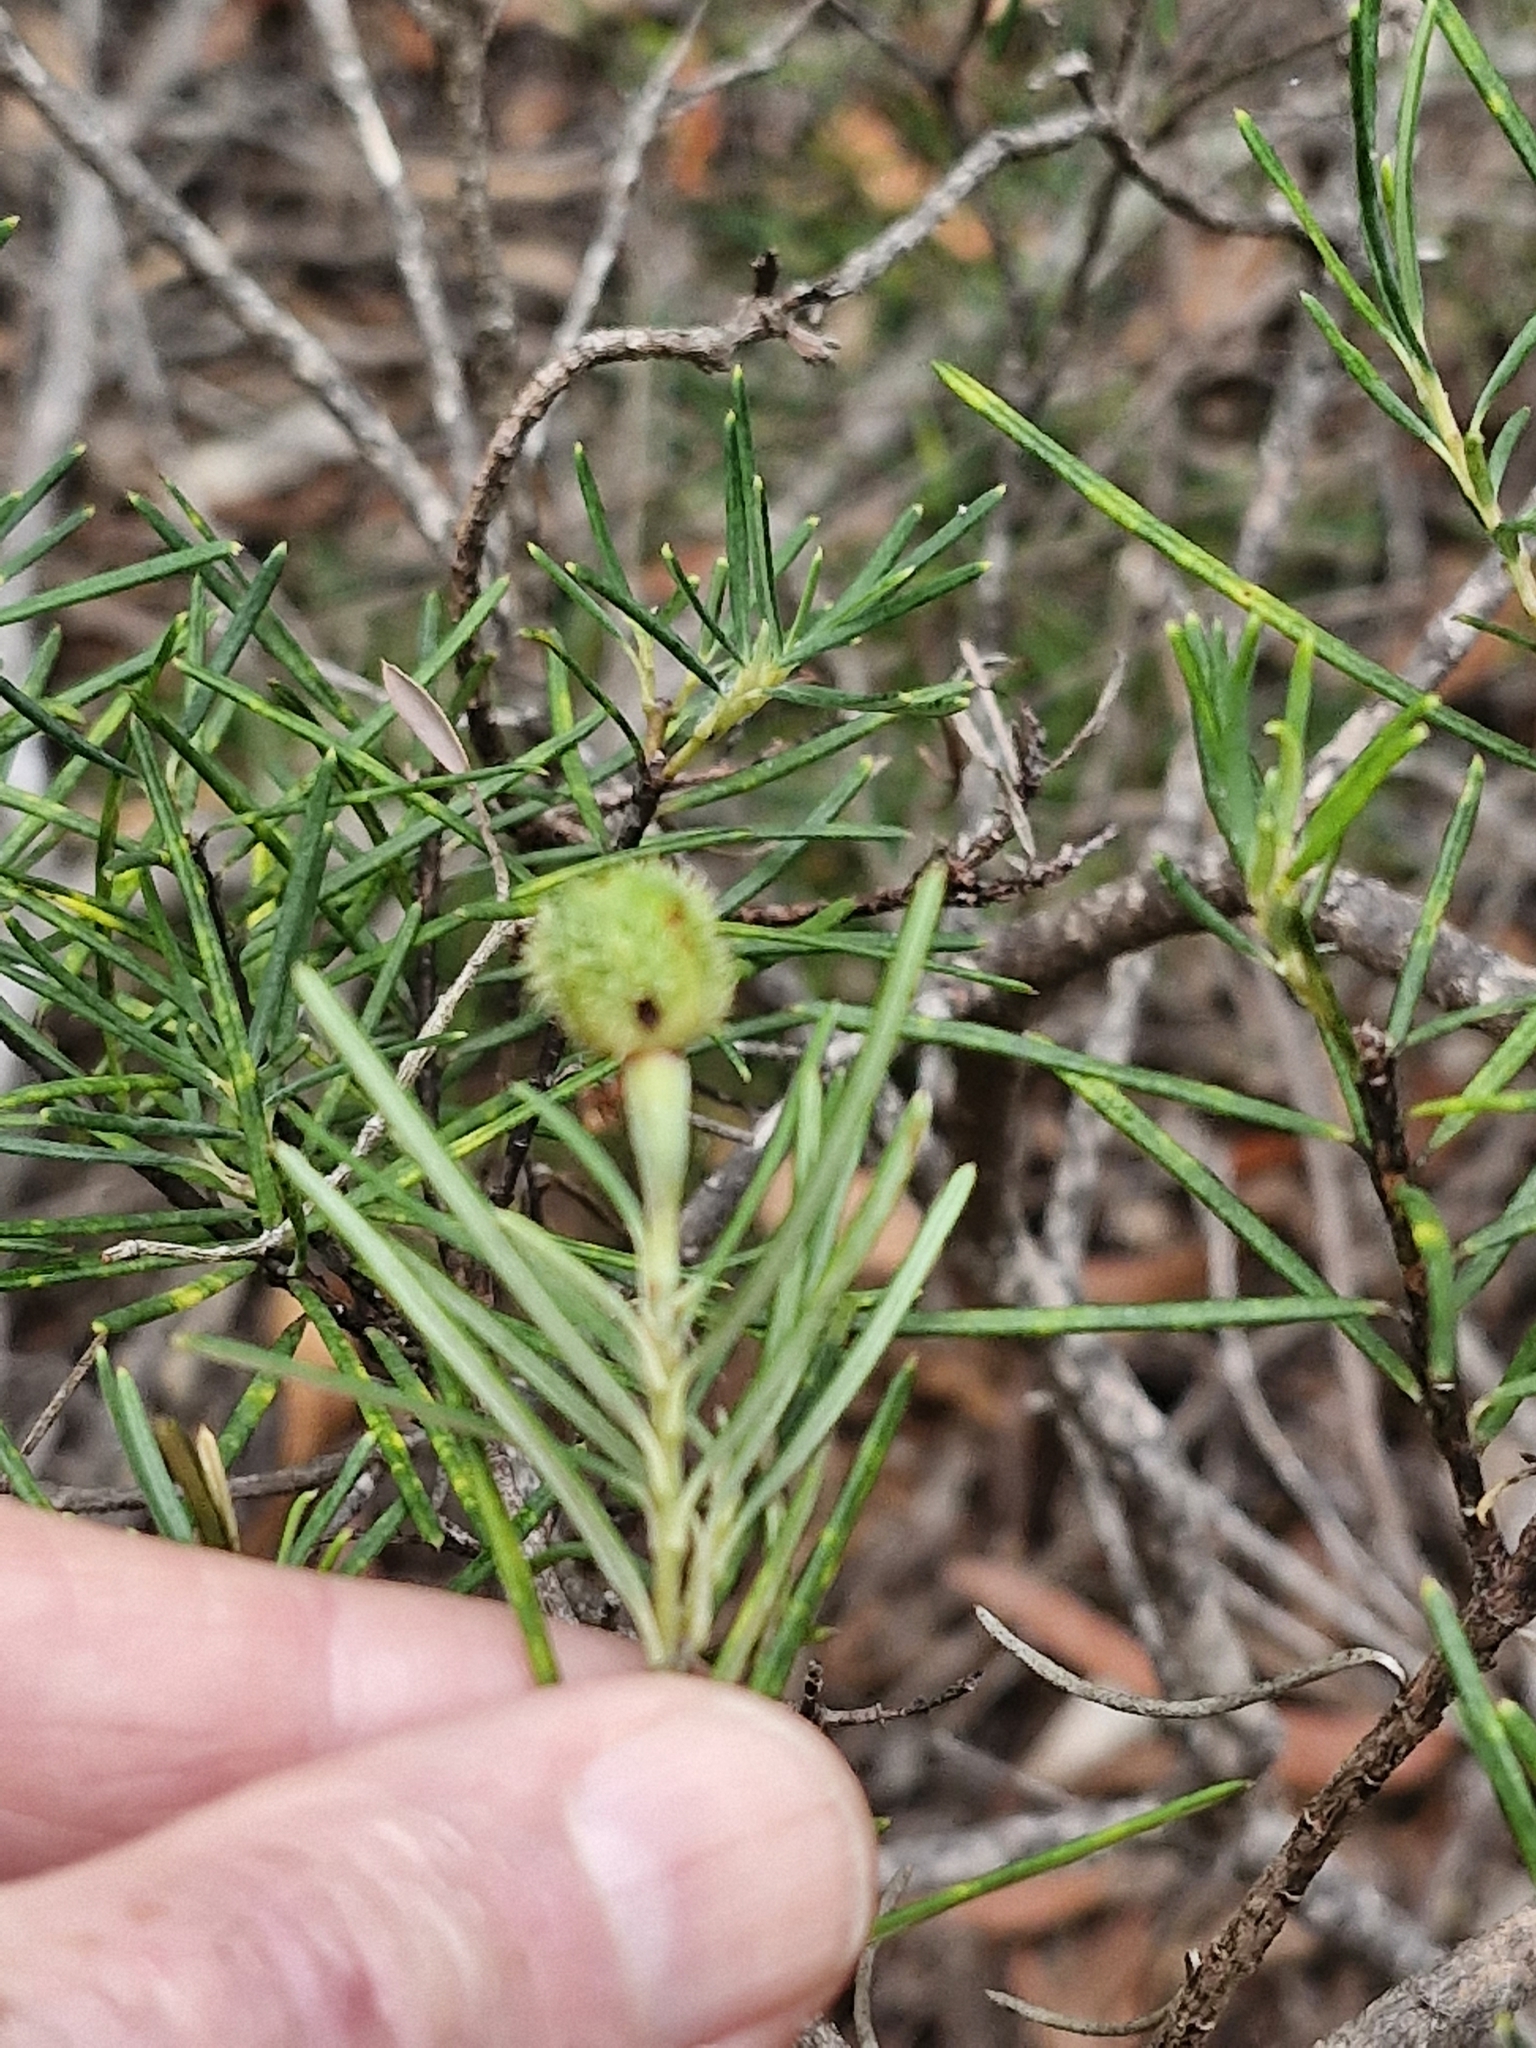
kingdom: Plantae
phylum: Tracheophyta
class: Magnoliopsida
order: Malpighiales
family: Euphorbiaceae
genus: Ricinocarpos
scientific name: Ricinocarpos pinifolius
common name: Weddingbush
